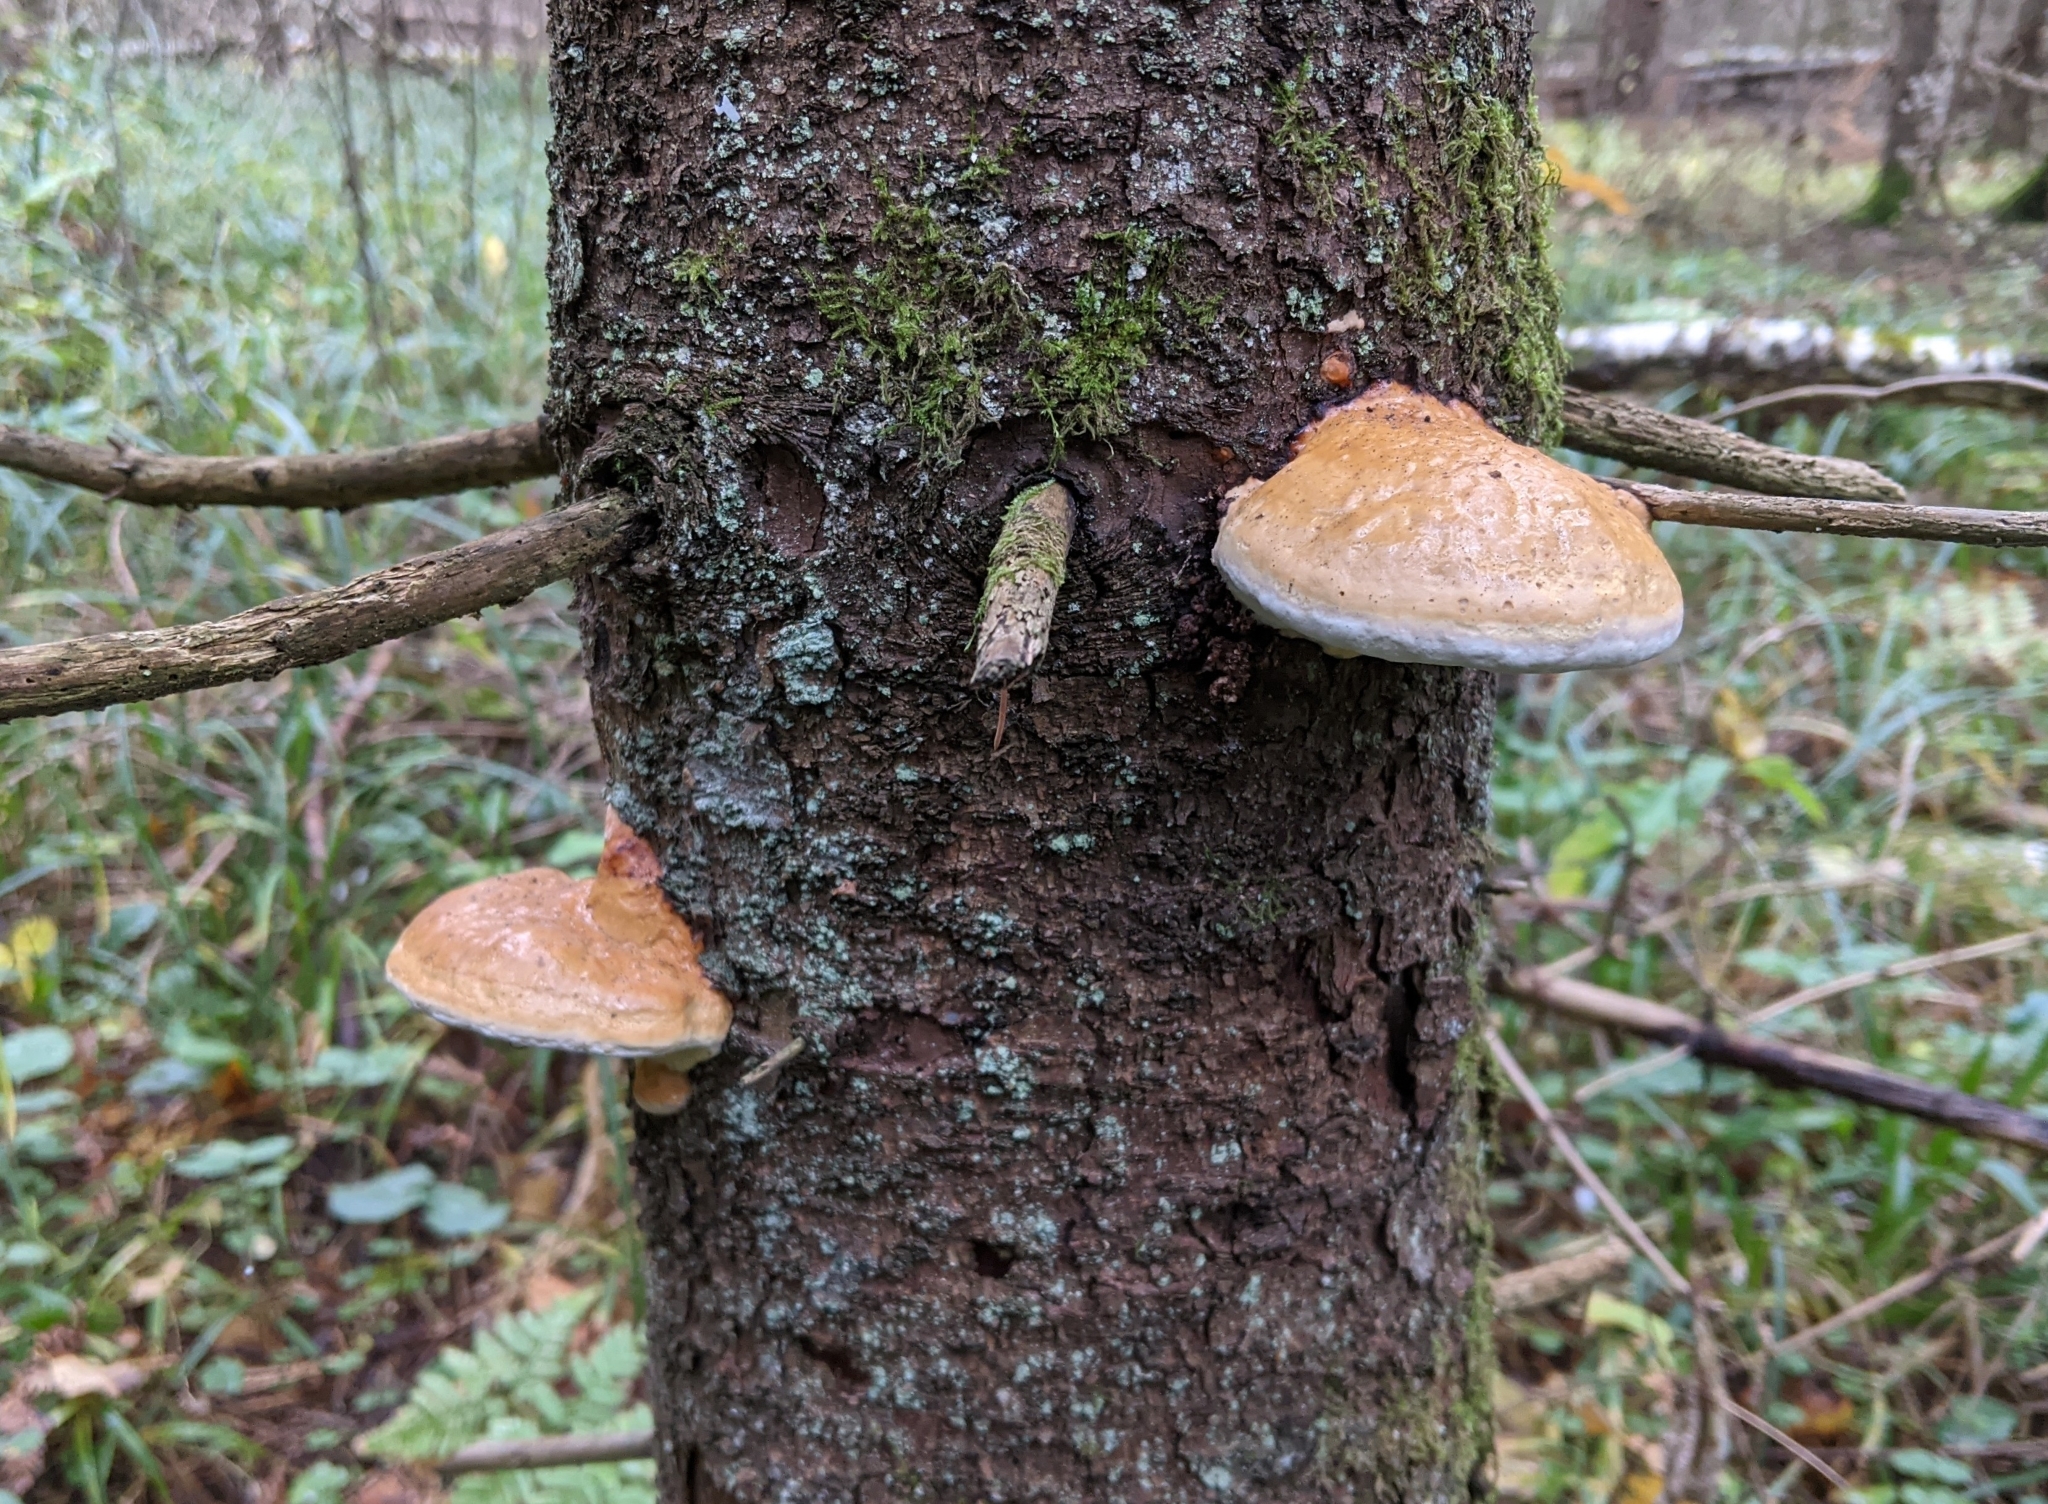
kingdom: Fungi
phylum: Basidiomycota
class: Agaricomycetes
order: Polyporales
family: Fomitopsidaceae
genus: Fomitopsis
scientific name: Fomitopsis pinicola
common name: Red-belted bracket
